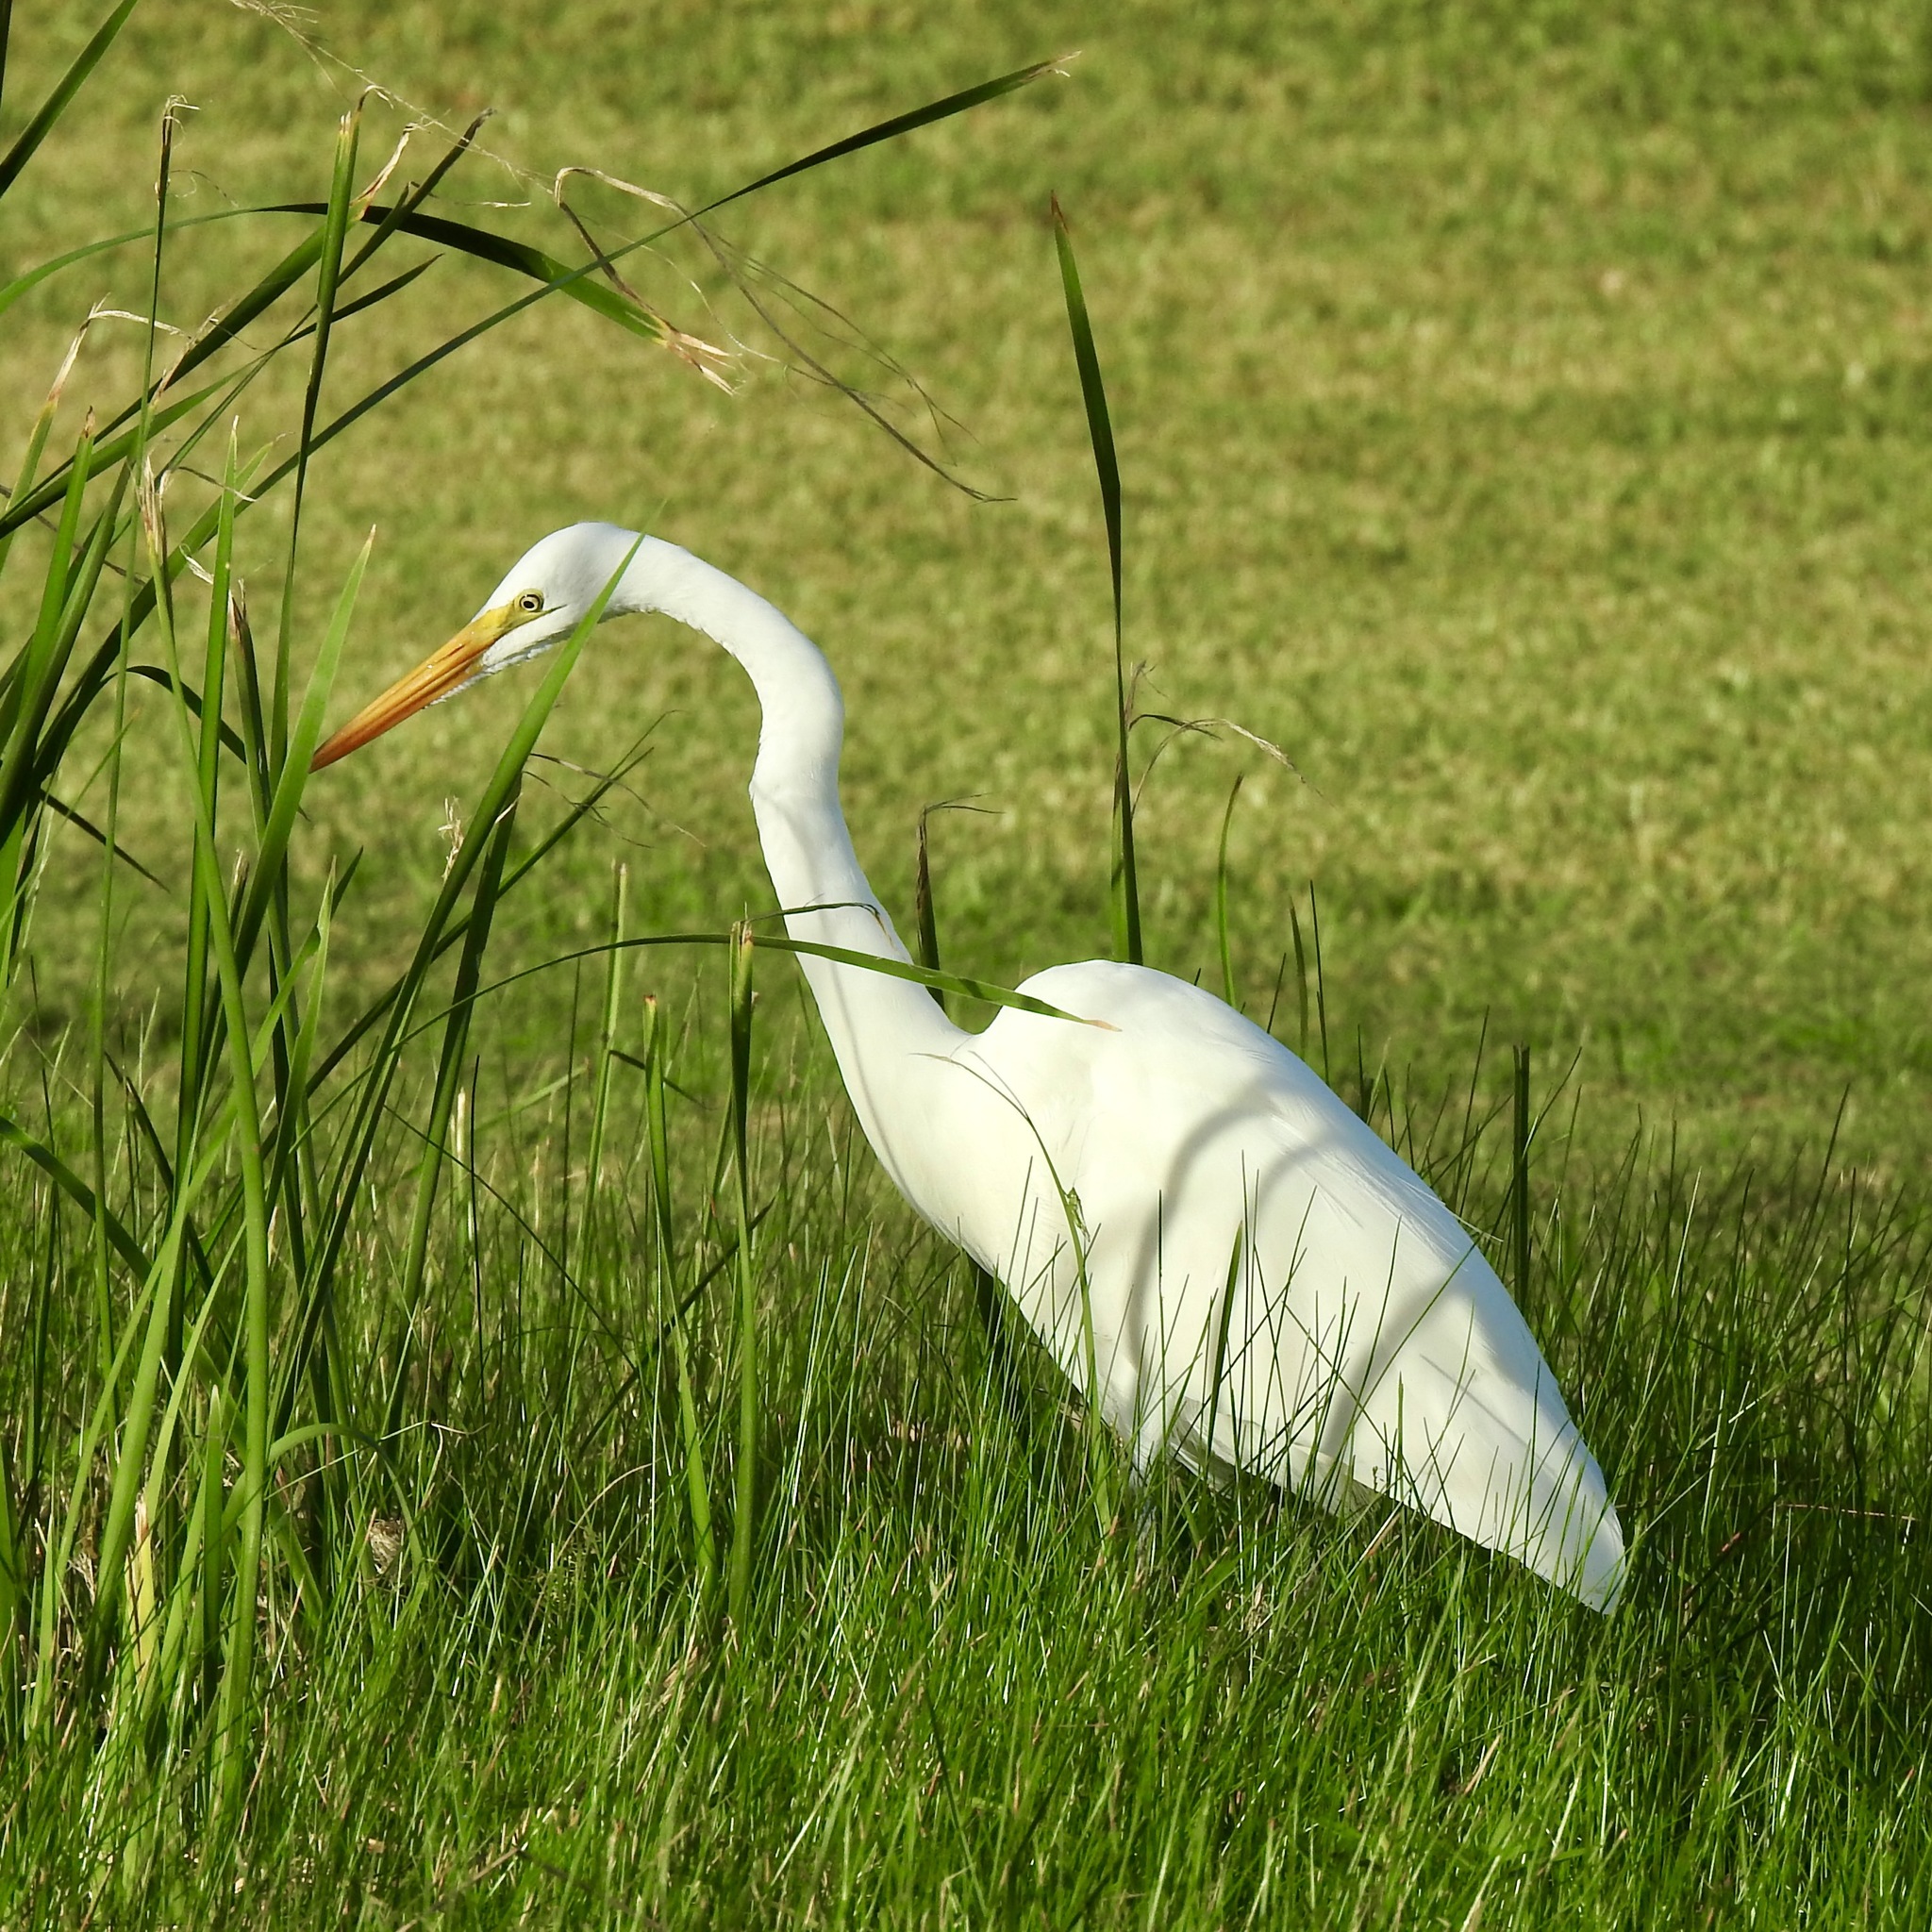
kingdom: Animalia
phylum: Chordata
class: Aves
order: Pelecaniformes
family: Ardeidae
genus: Ardea
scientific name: Ardea alba
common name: Great egret
